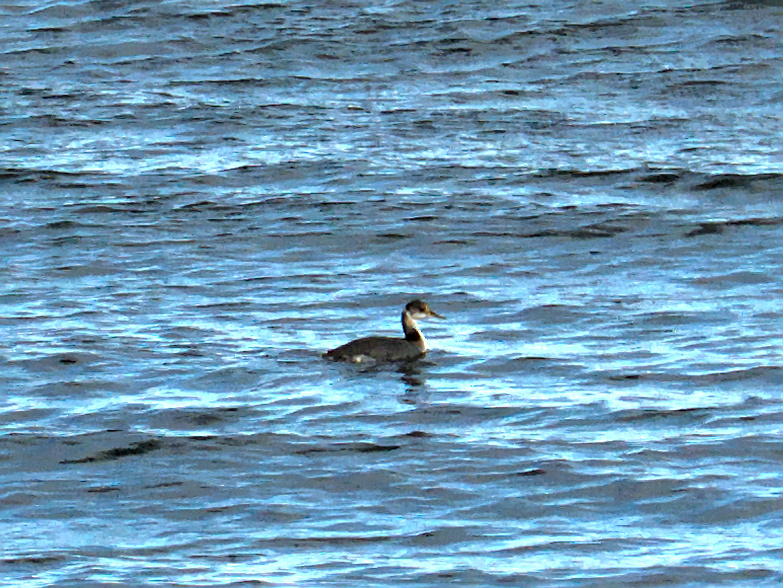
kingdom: Animalia
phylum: Chordata
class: Aves
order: Podicipediformes
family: Podicipedidae
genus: Podiceps
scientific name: Podiceps grisegena
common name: Red-necked grebe
